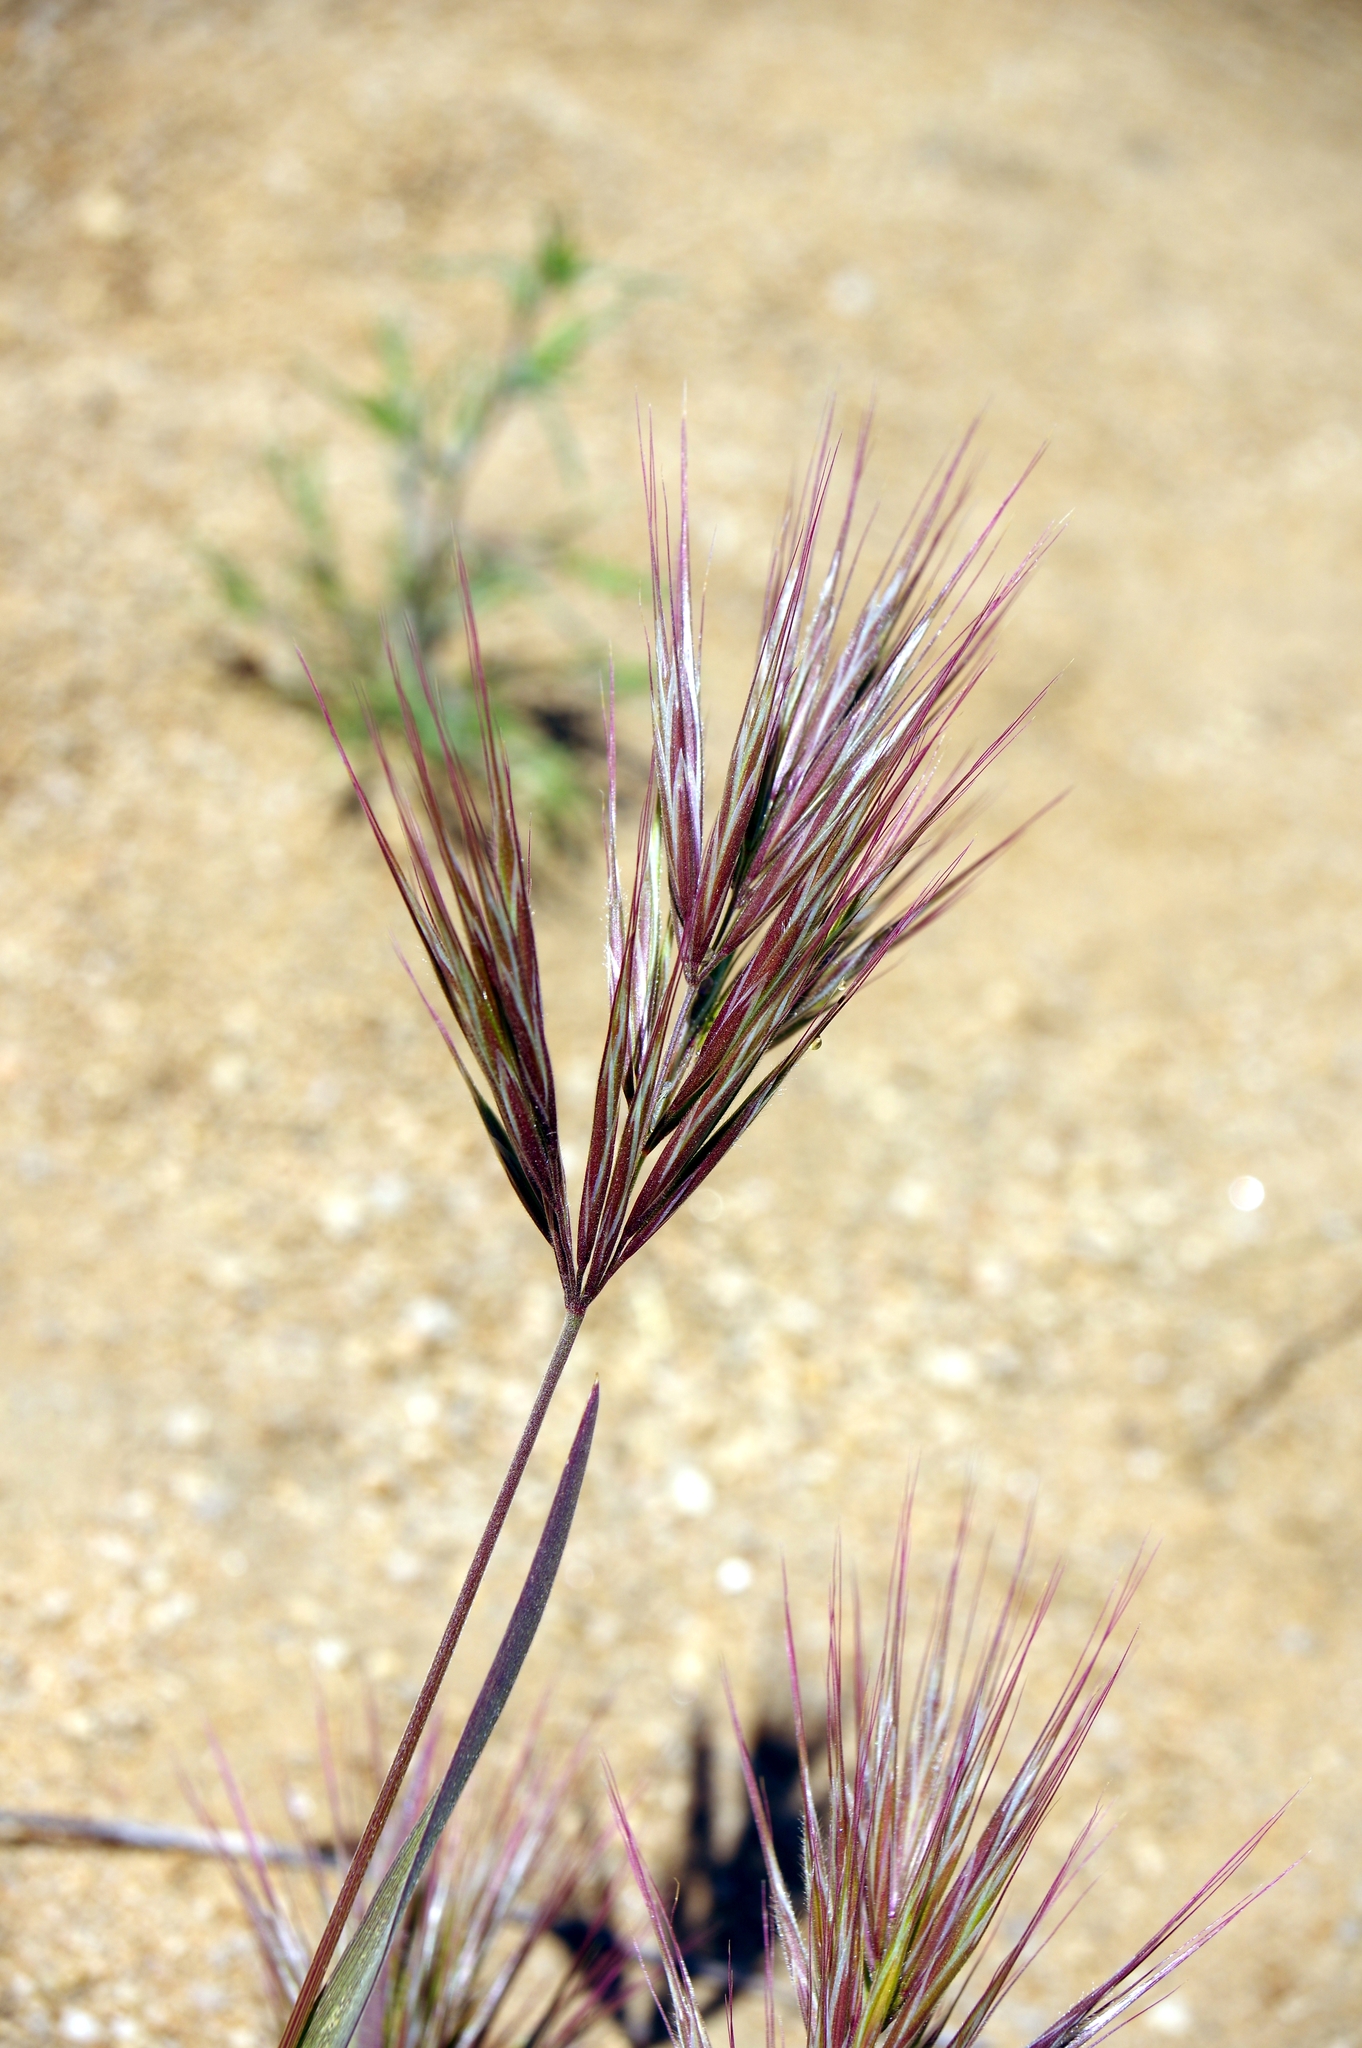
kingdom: Plantae
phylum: Tracheophyta
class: Liliopsida
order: Poales
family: Poaceae
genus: Bromus
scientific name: Bromus rubens
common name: Red brome
